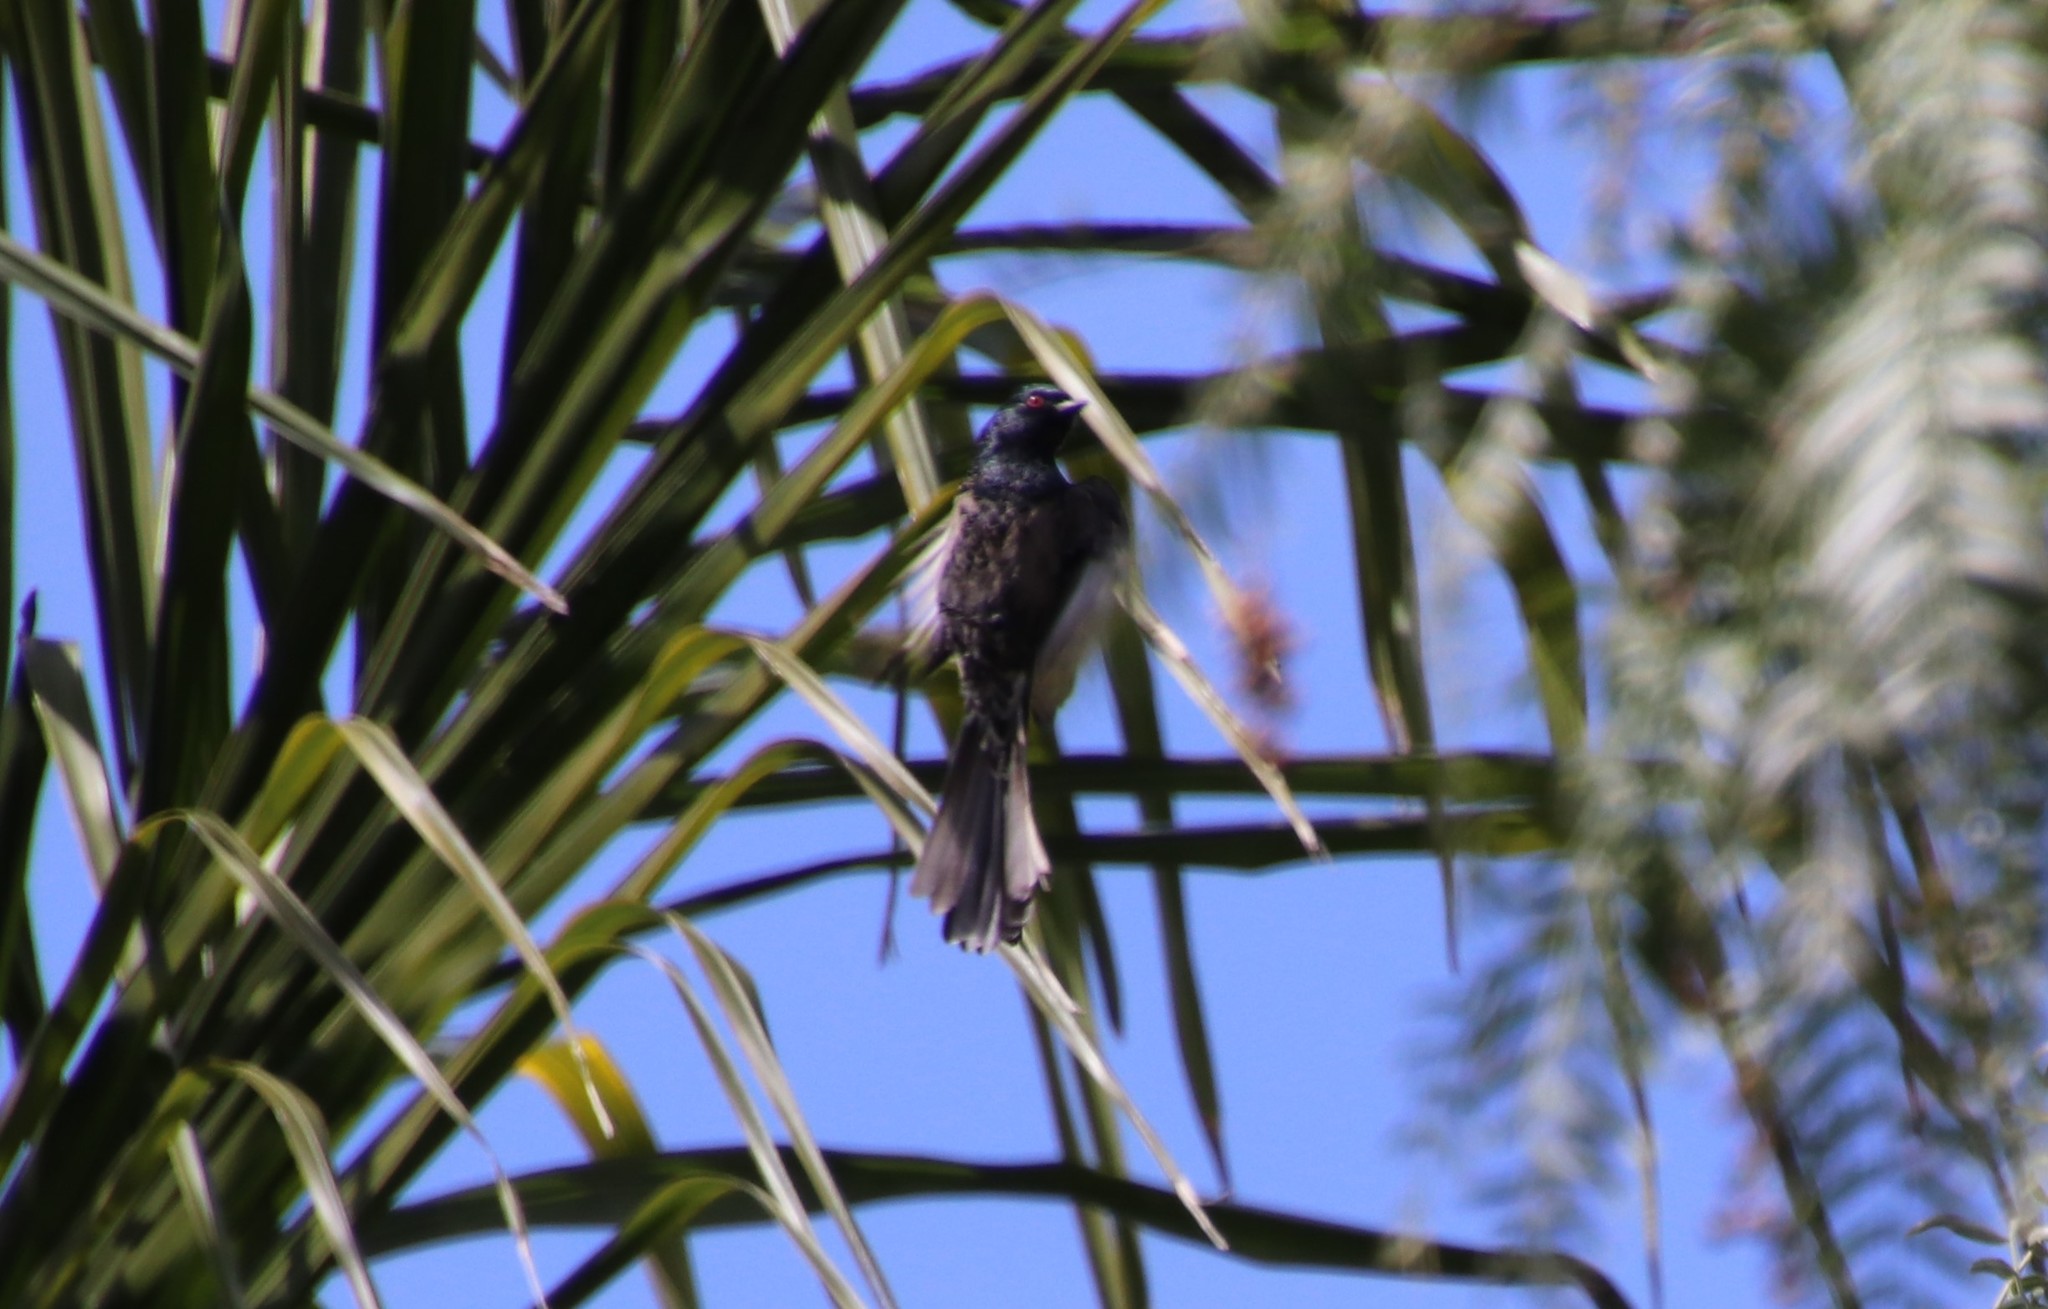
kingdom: Animalia
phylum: Chordata
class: Aves
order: Passeriformes
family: Ptilogonatidae
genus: Phainopepla
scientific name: Phainopepla nitens
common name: Phainopepla
